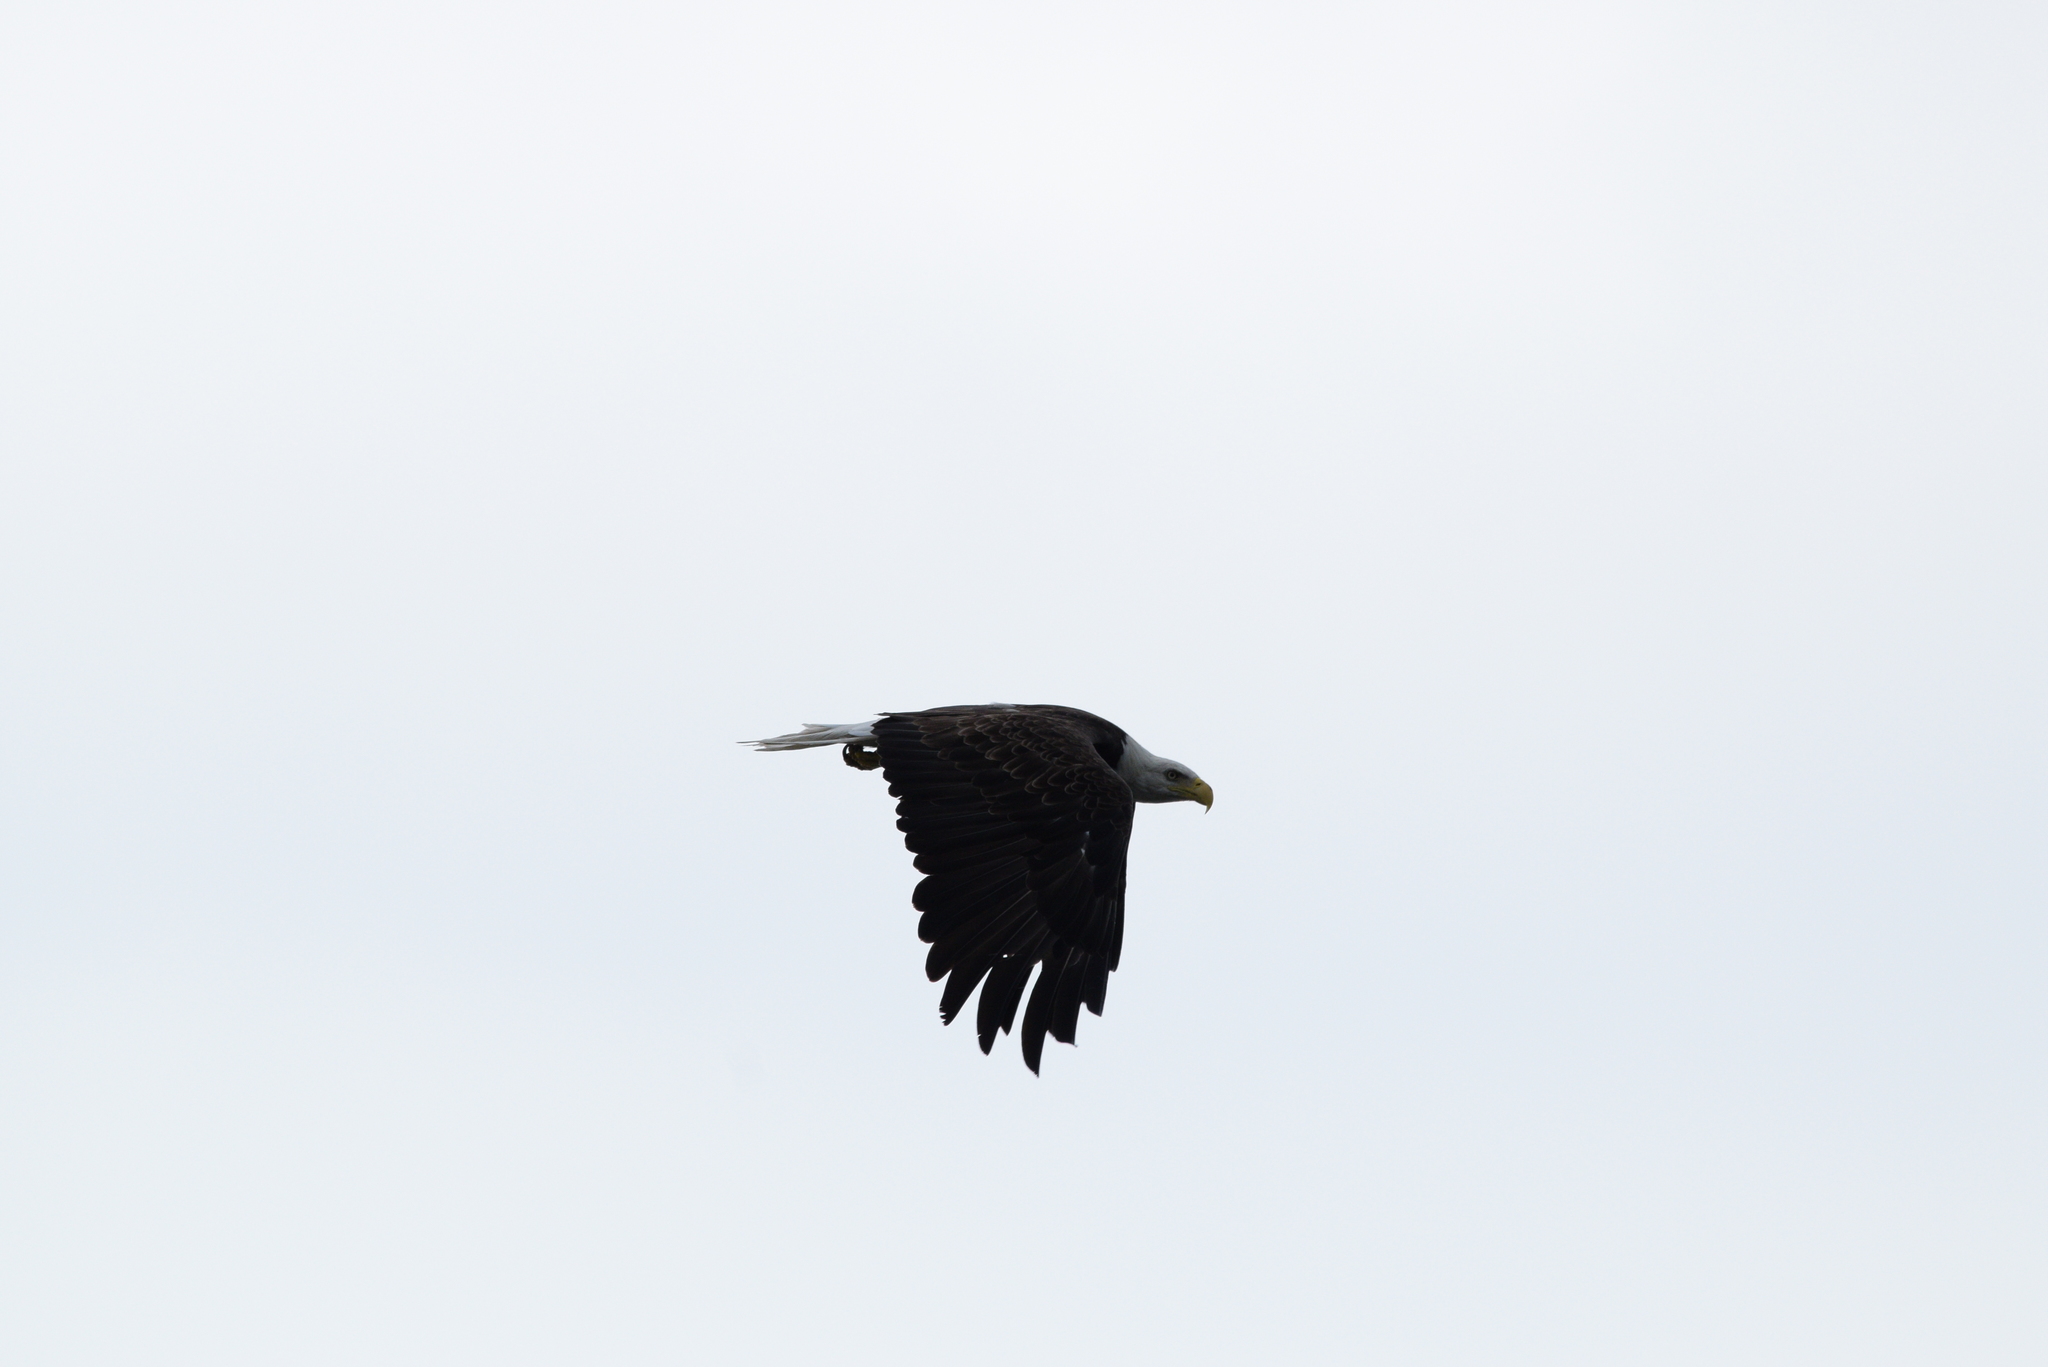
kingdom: Animalia
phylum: Chordata
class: Aves
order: Accipitriformes
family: Accipitridae
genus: Haliaeetus
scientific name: Haliaeetus leucocephalus
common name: Bald eagle
